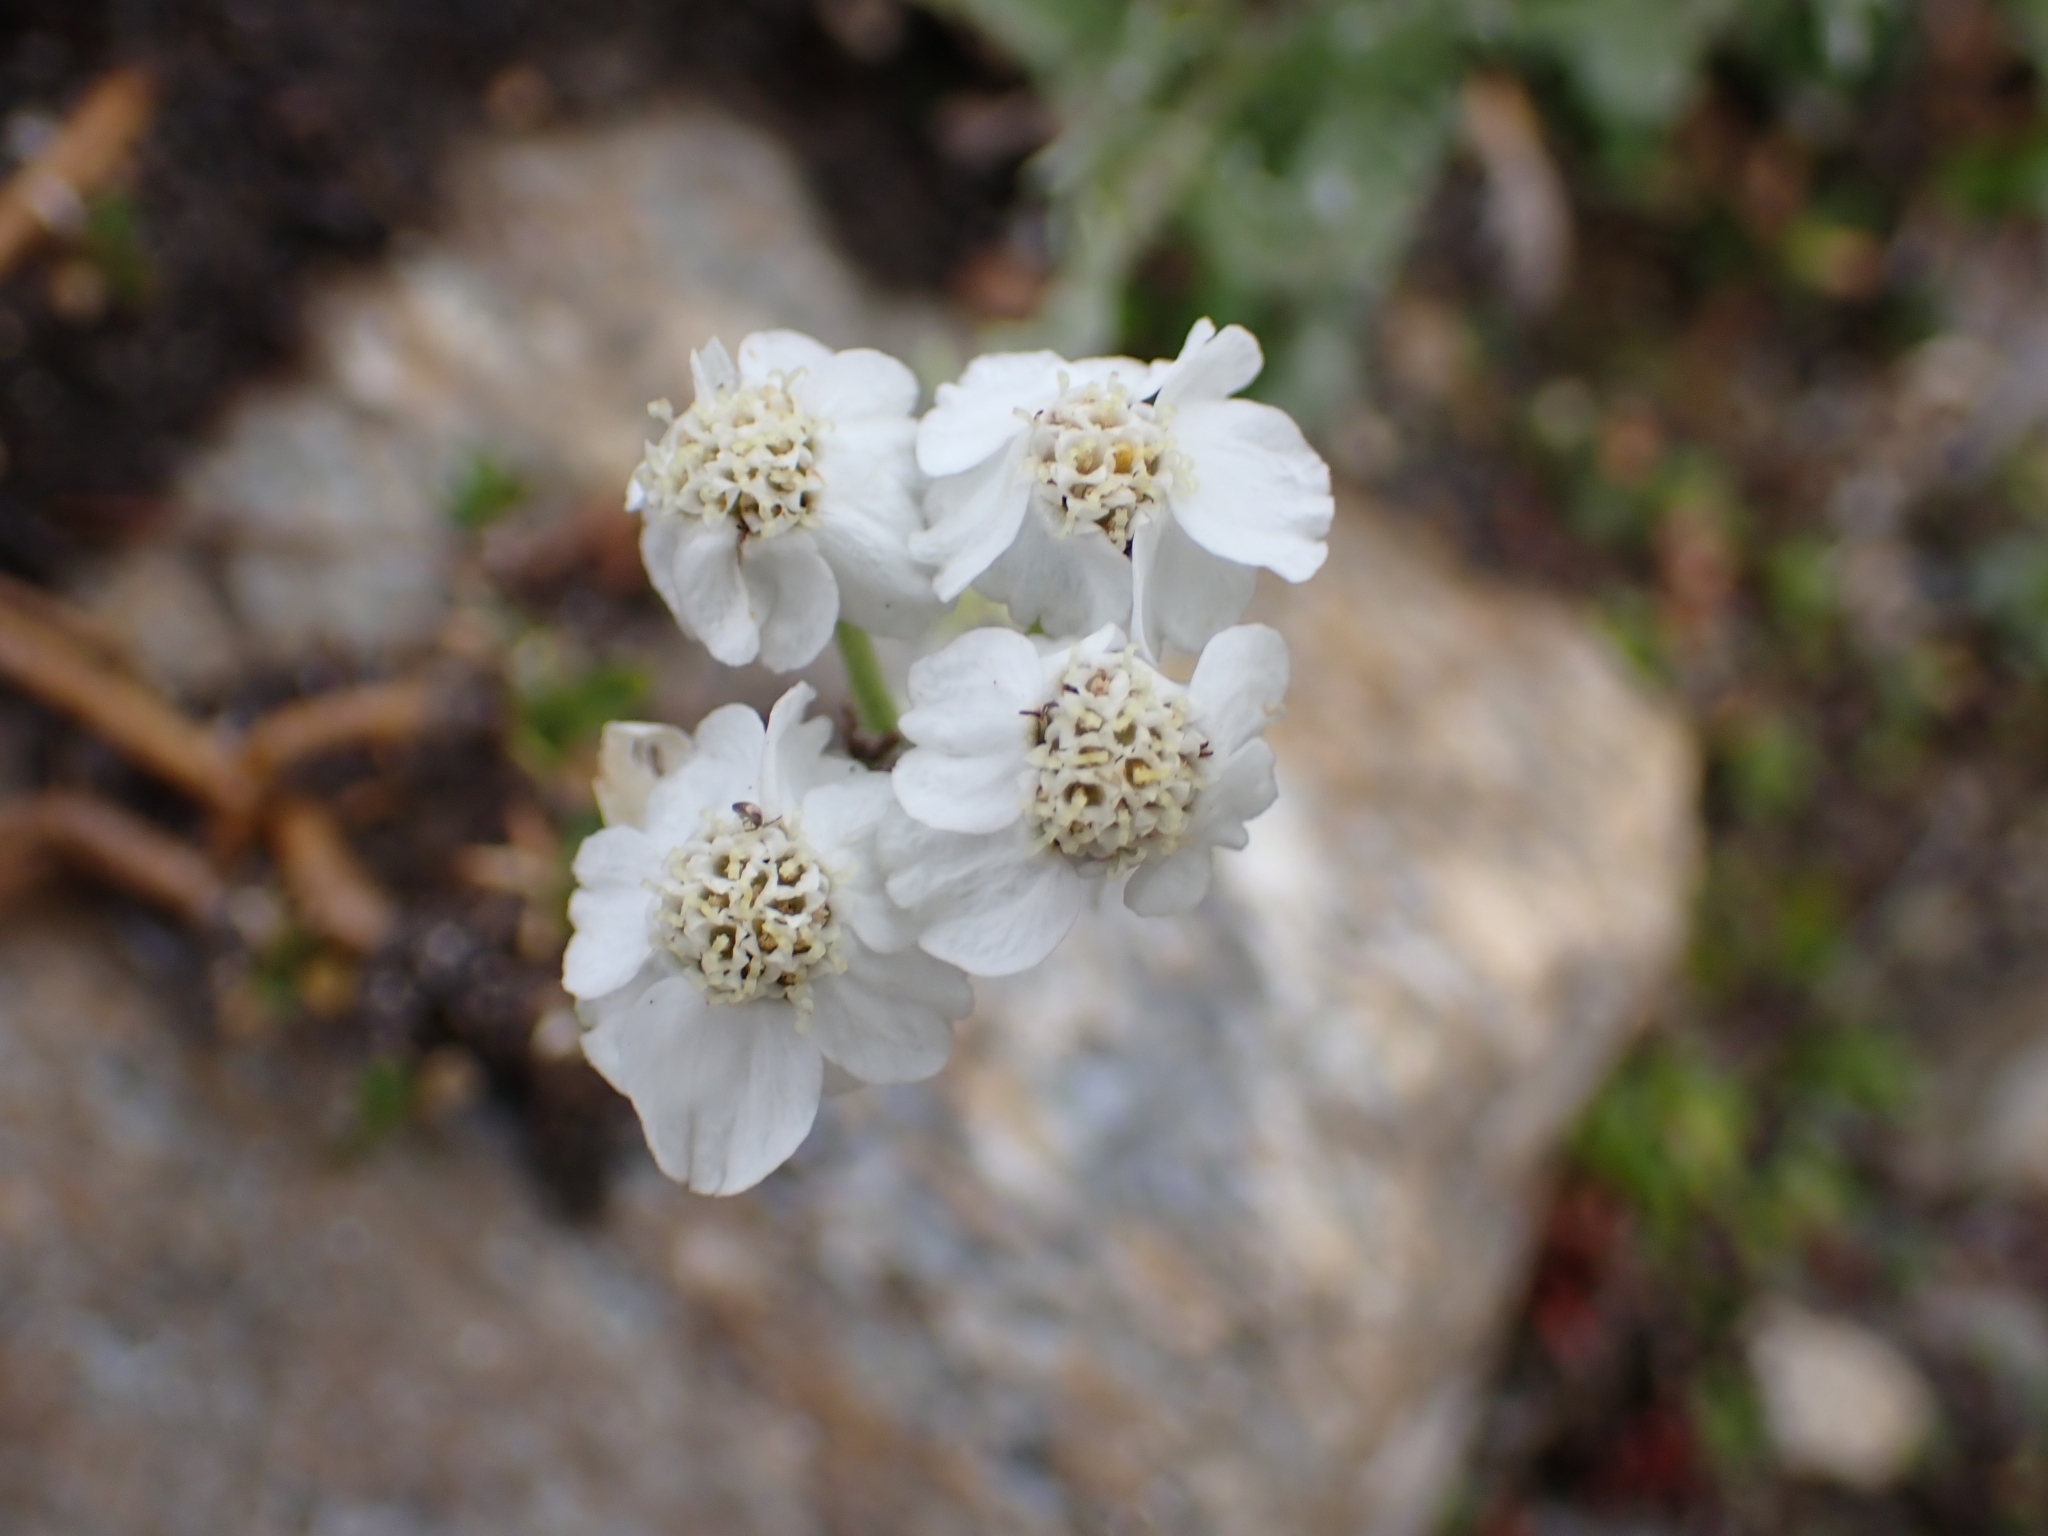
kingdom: Plantae
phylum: Tracheophyta
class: Magnoliopsida
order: Asterales
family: Asteraceae
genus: Achillea
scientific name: Achillea clavennae
